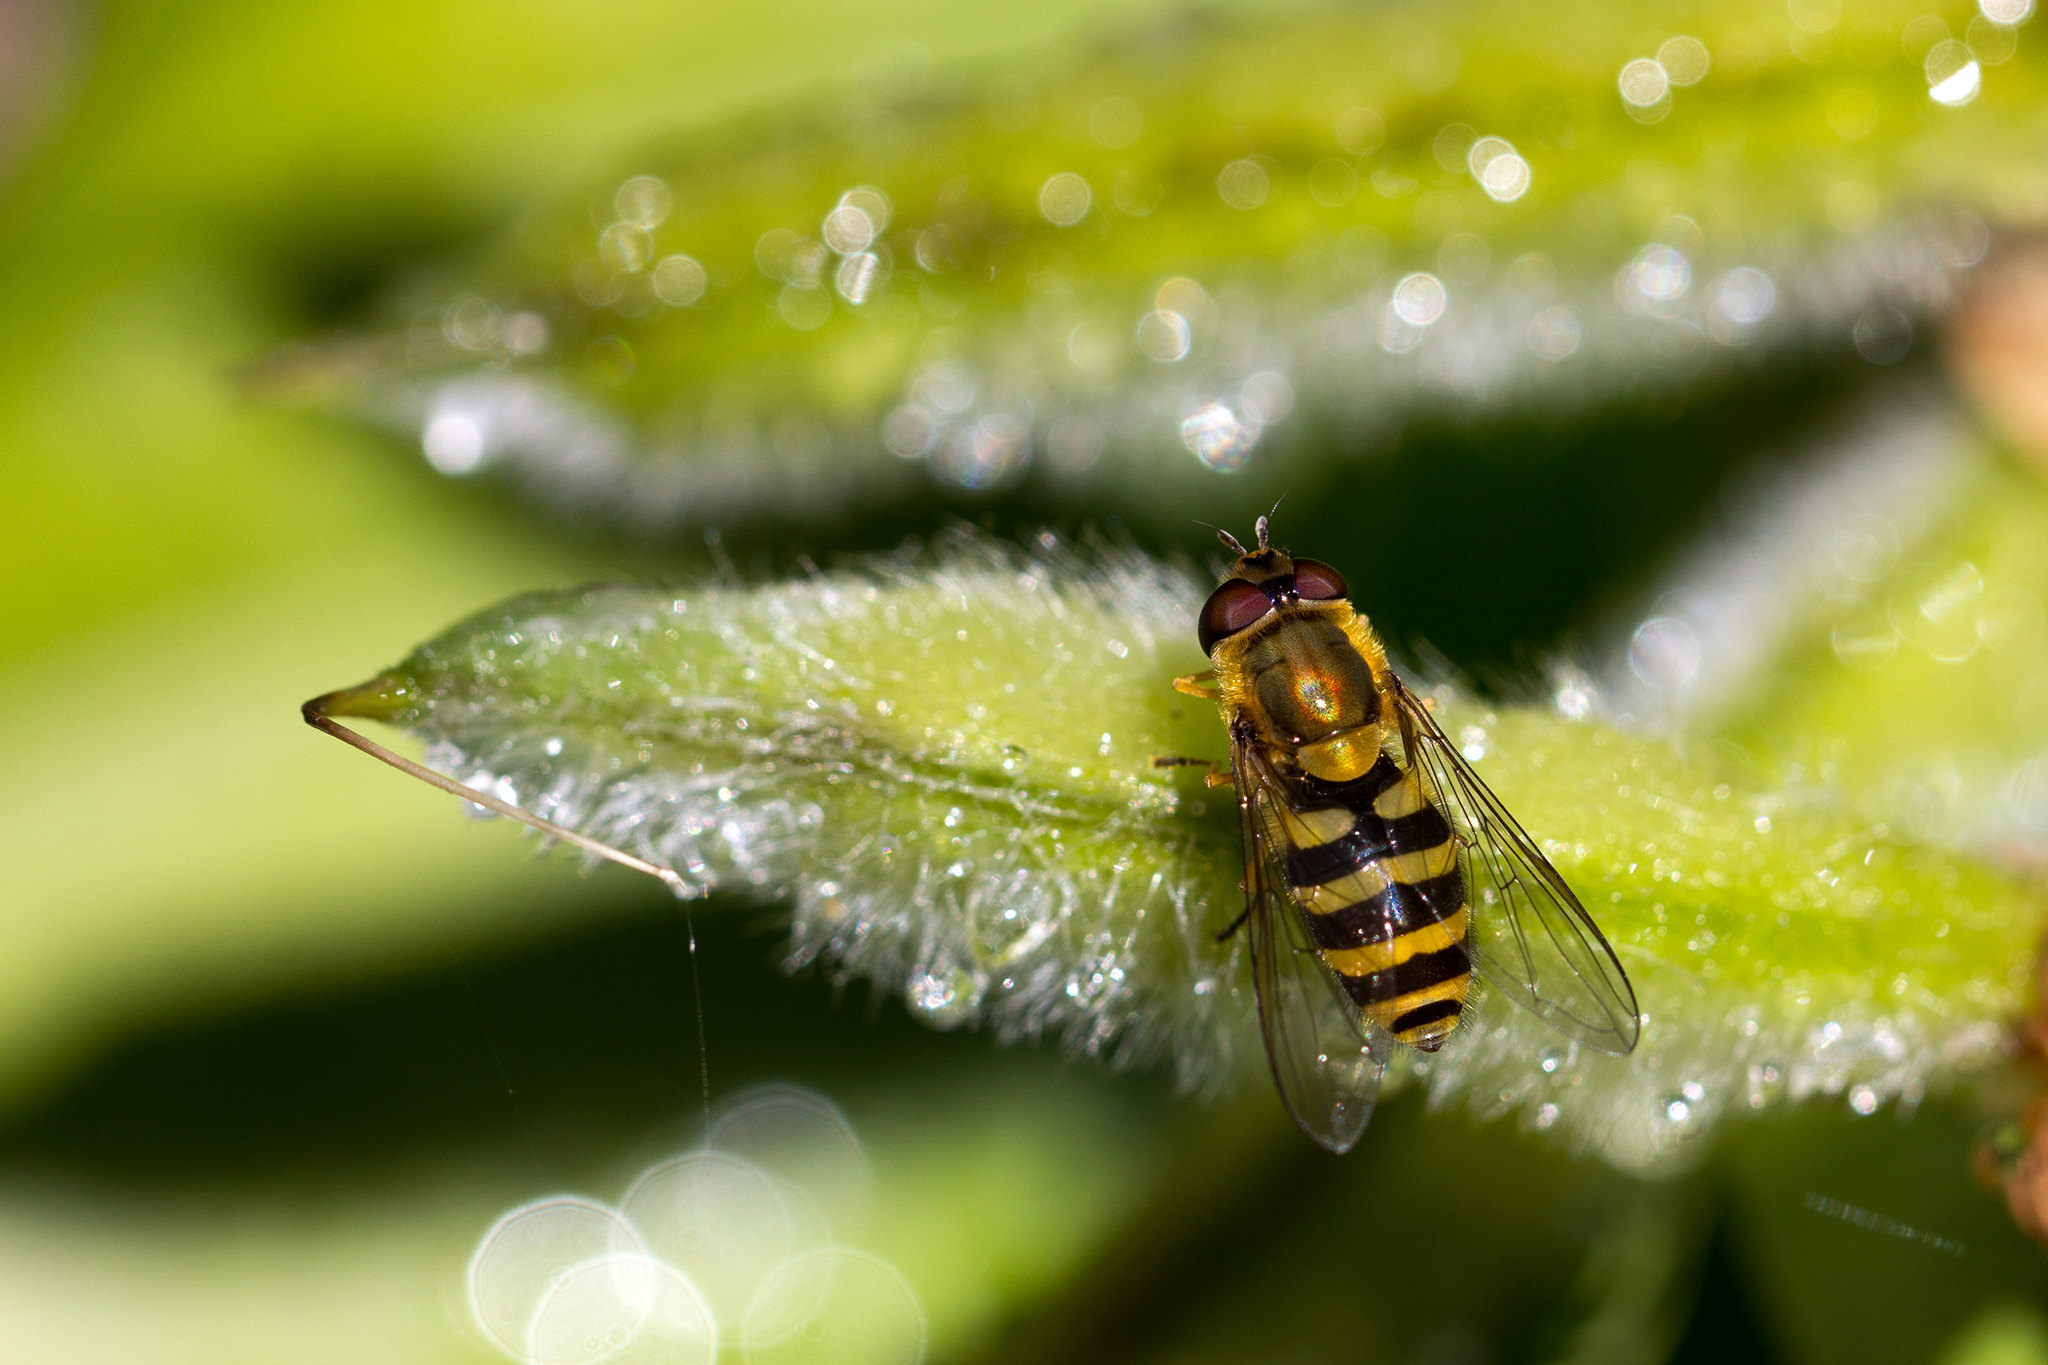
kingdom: Animalia
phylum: Arthropoda
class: Insecta
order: Diptera
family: Syrphidae
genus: Syrphus
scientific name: Syrphus
